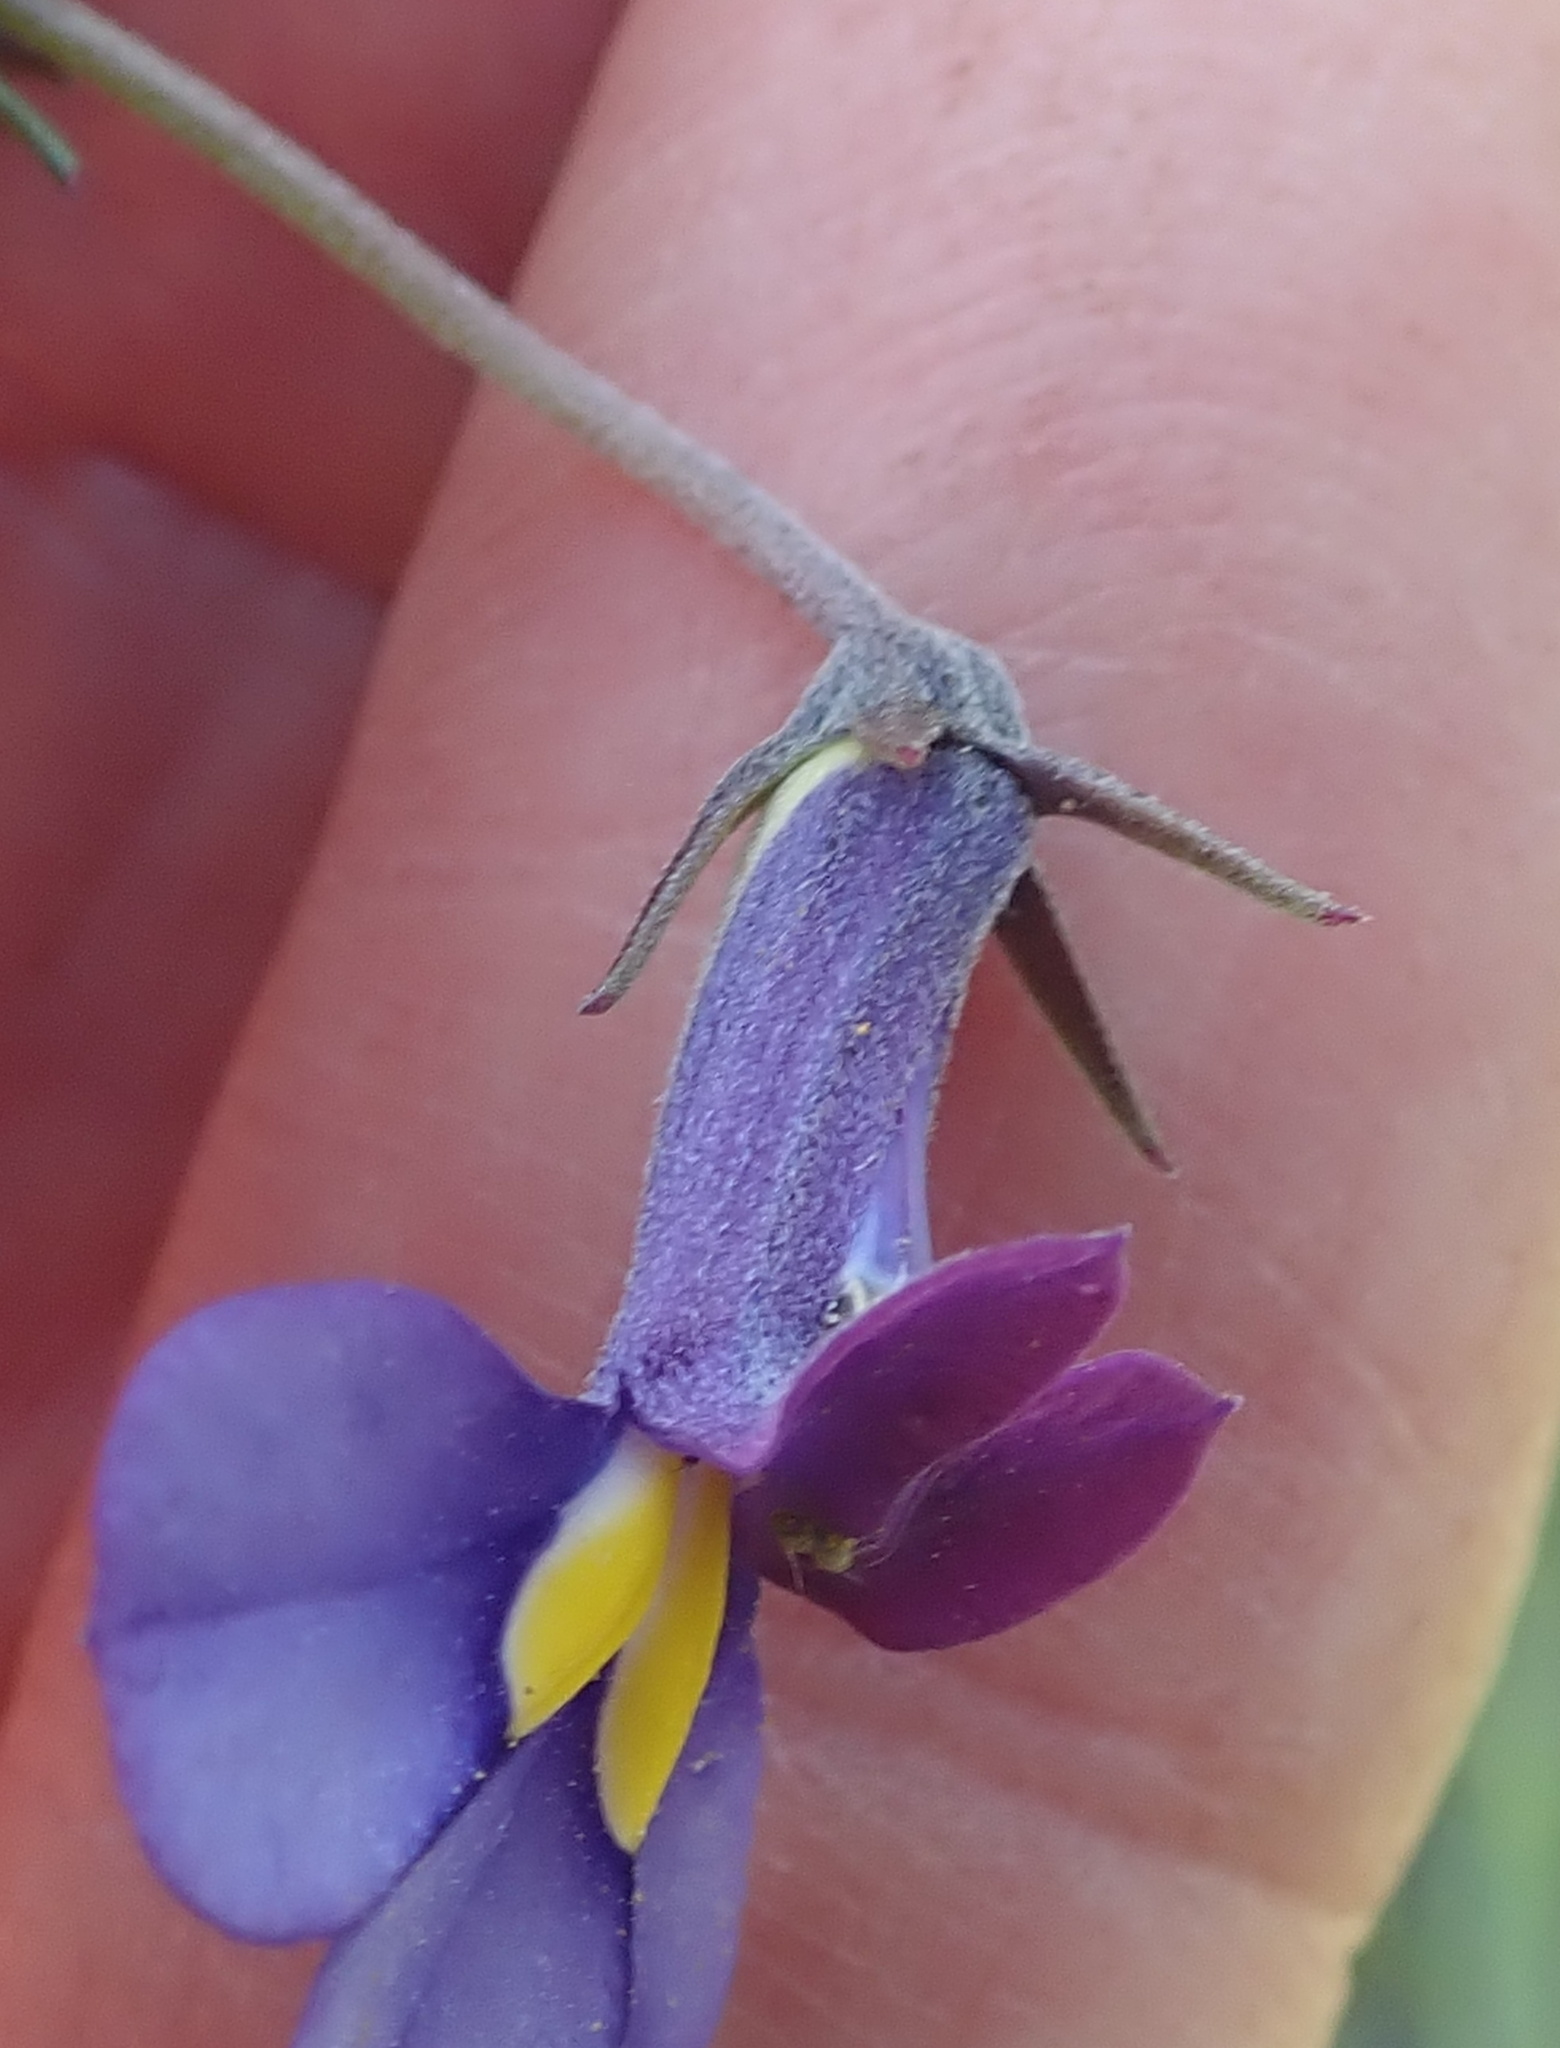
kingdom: Plantae
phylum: Tracheophyta
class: Magnoliopsida
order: Asterales
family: Campanulaceae
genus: Monopsis
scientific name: Monopsis decipiens
